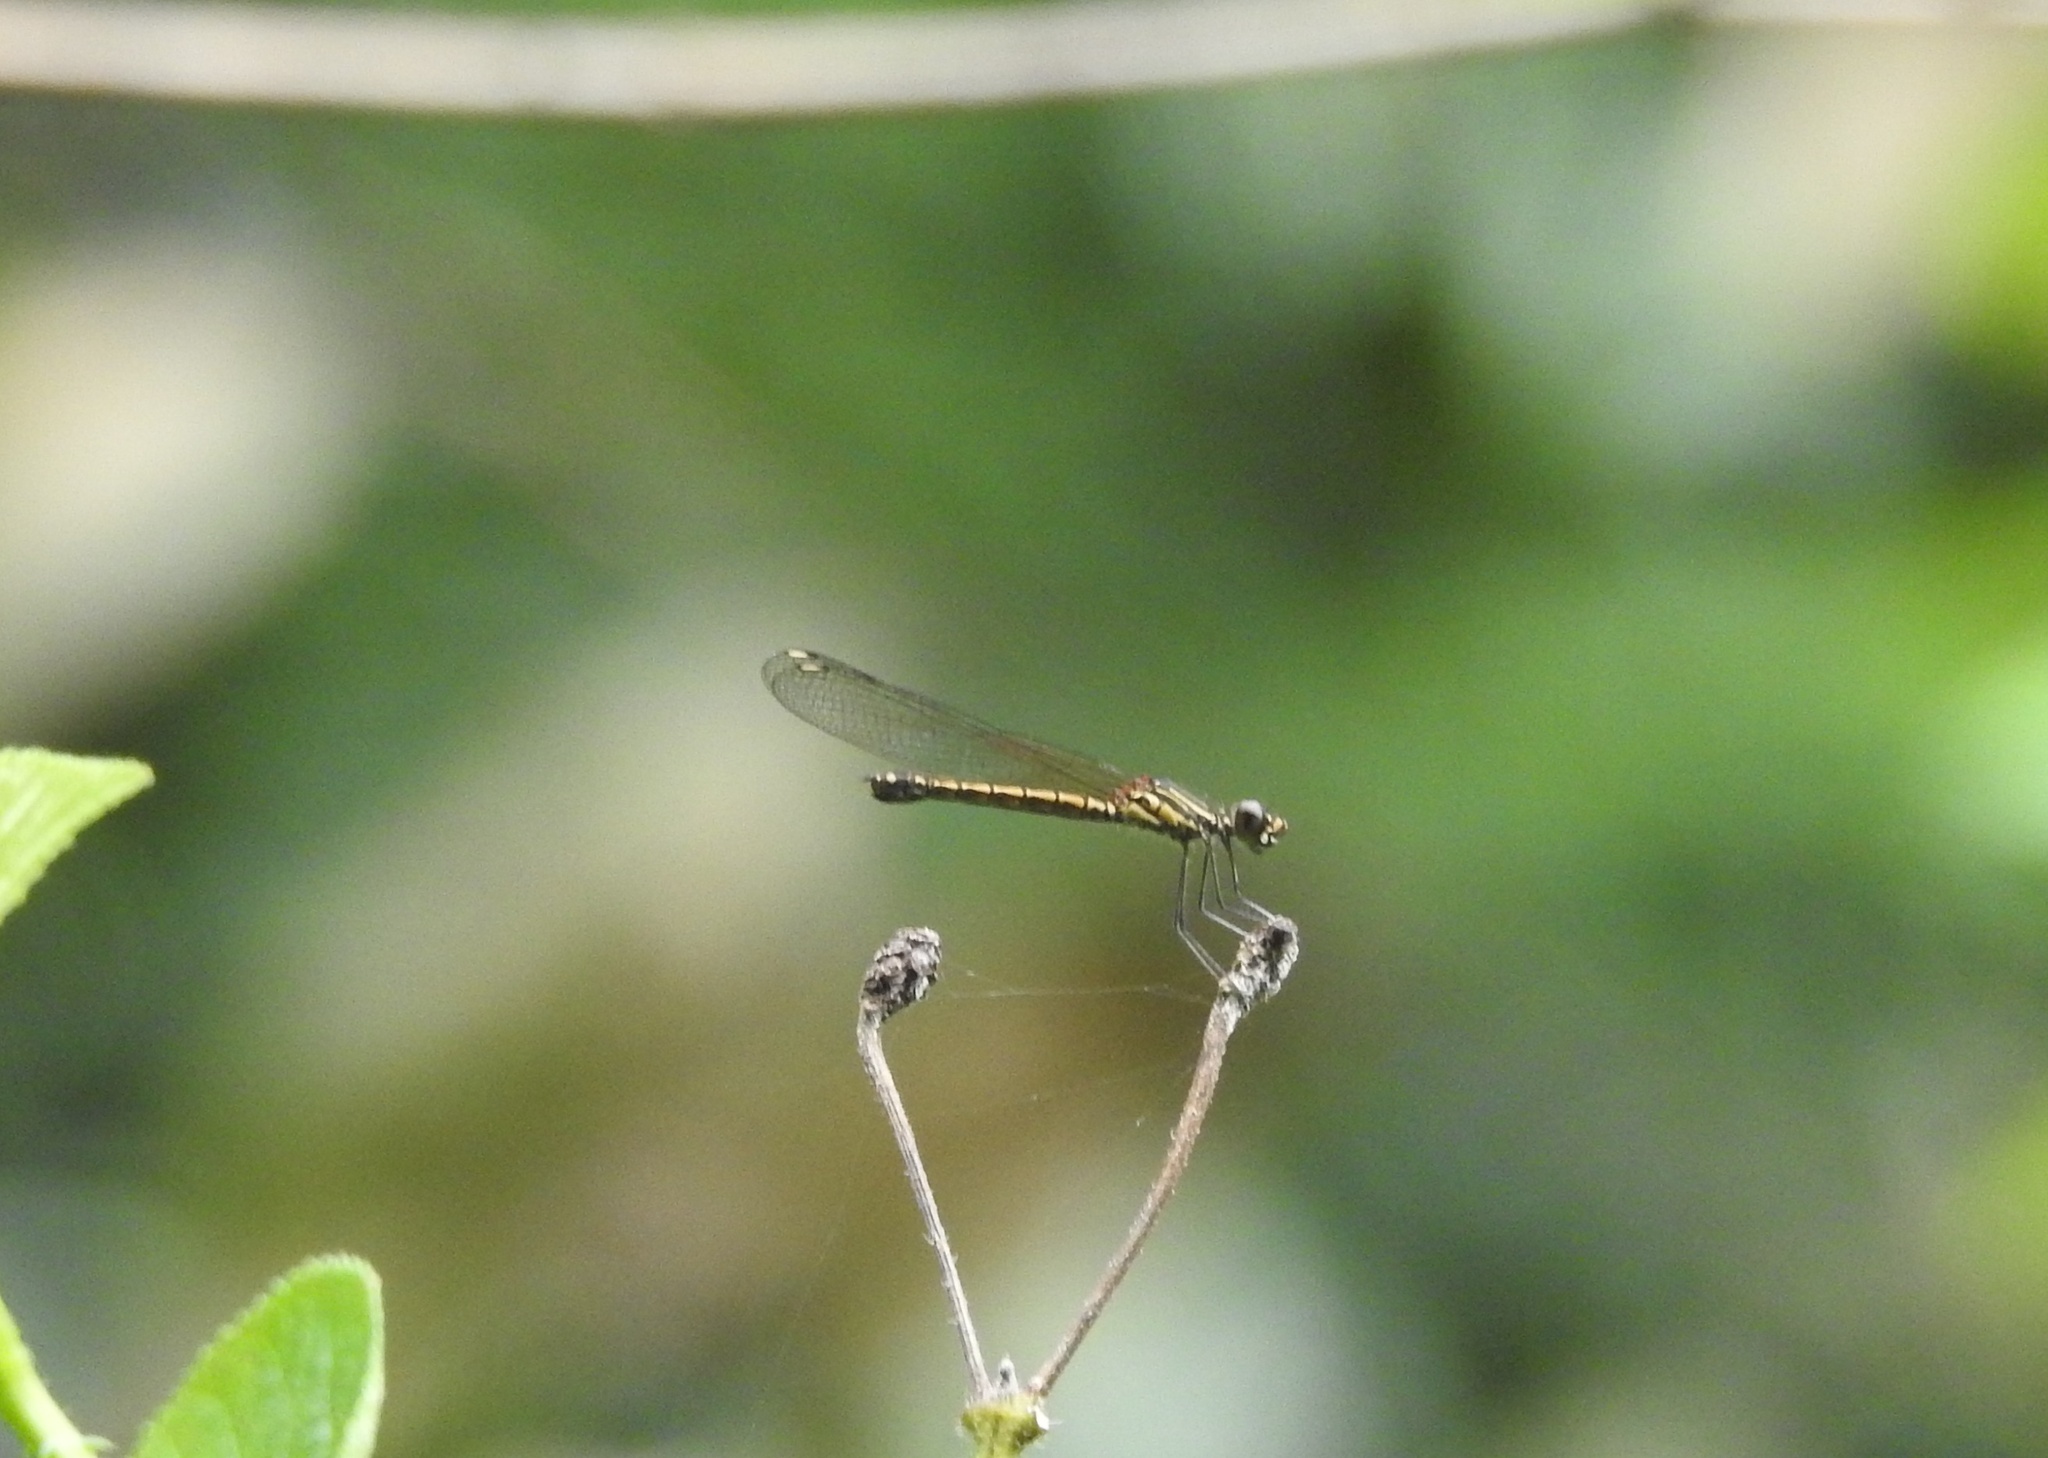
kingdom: Animalia
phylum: Arthropoda
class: Insecta
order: Odonata
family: Chlorocyphidae
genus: Libellago
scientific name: Libellago indica
